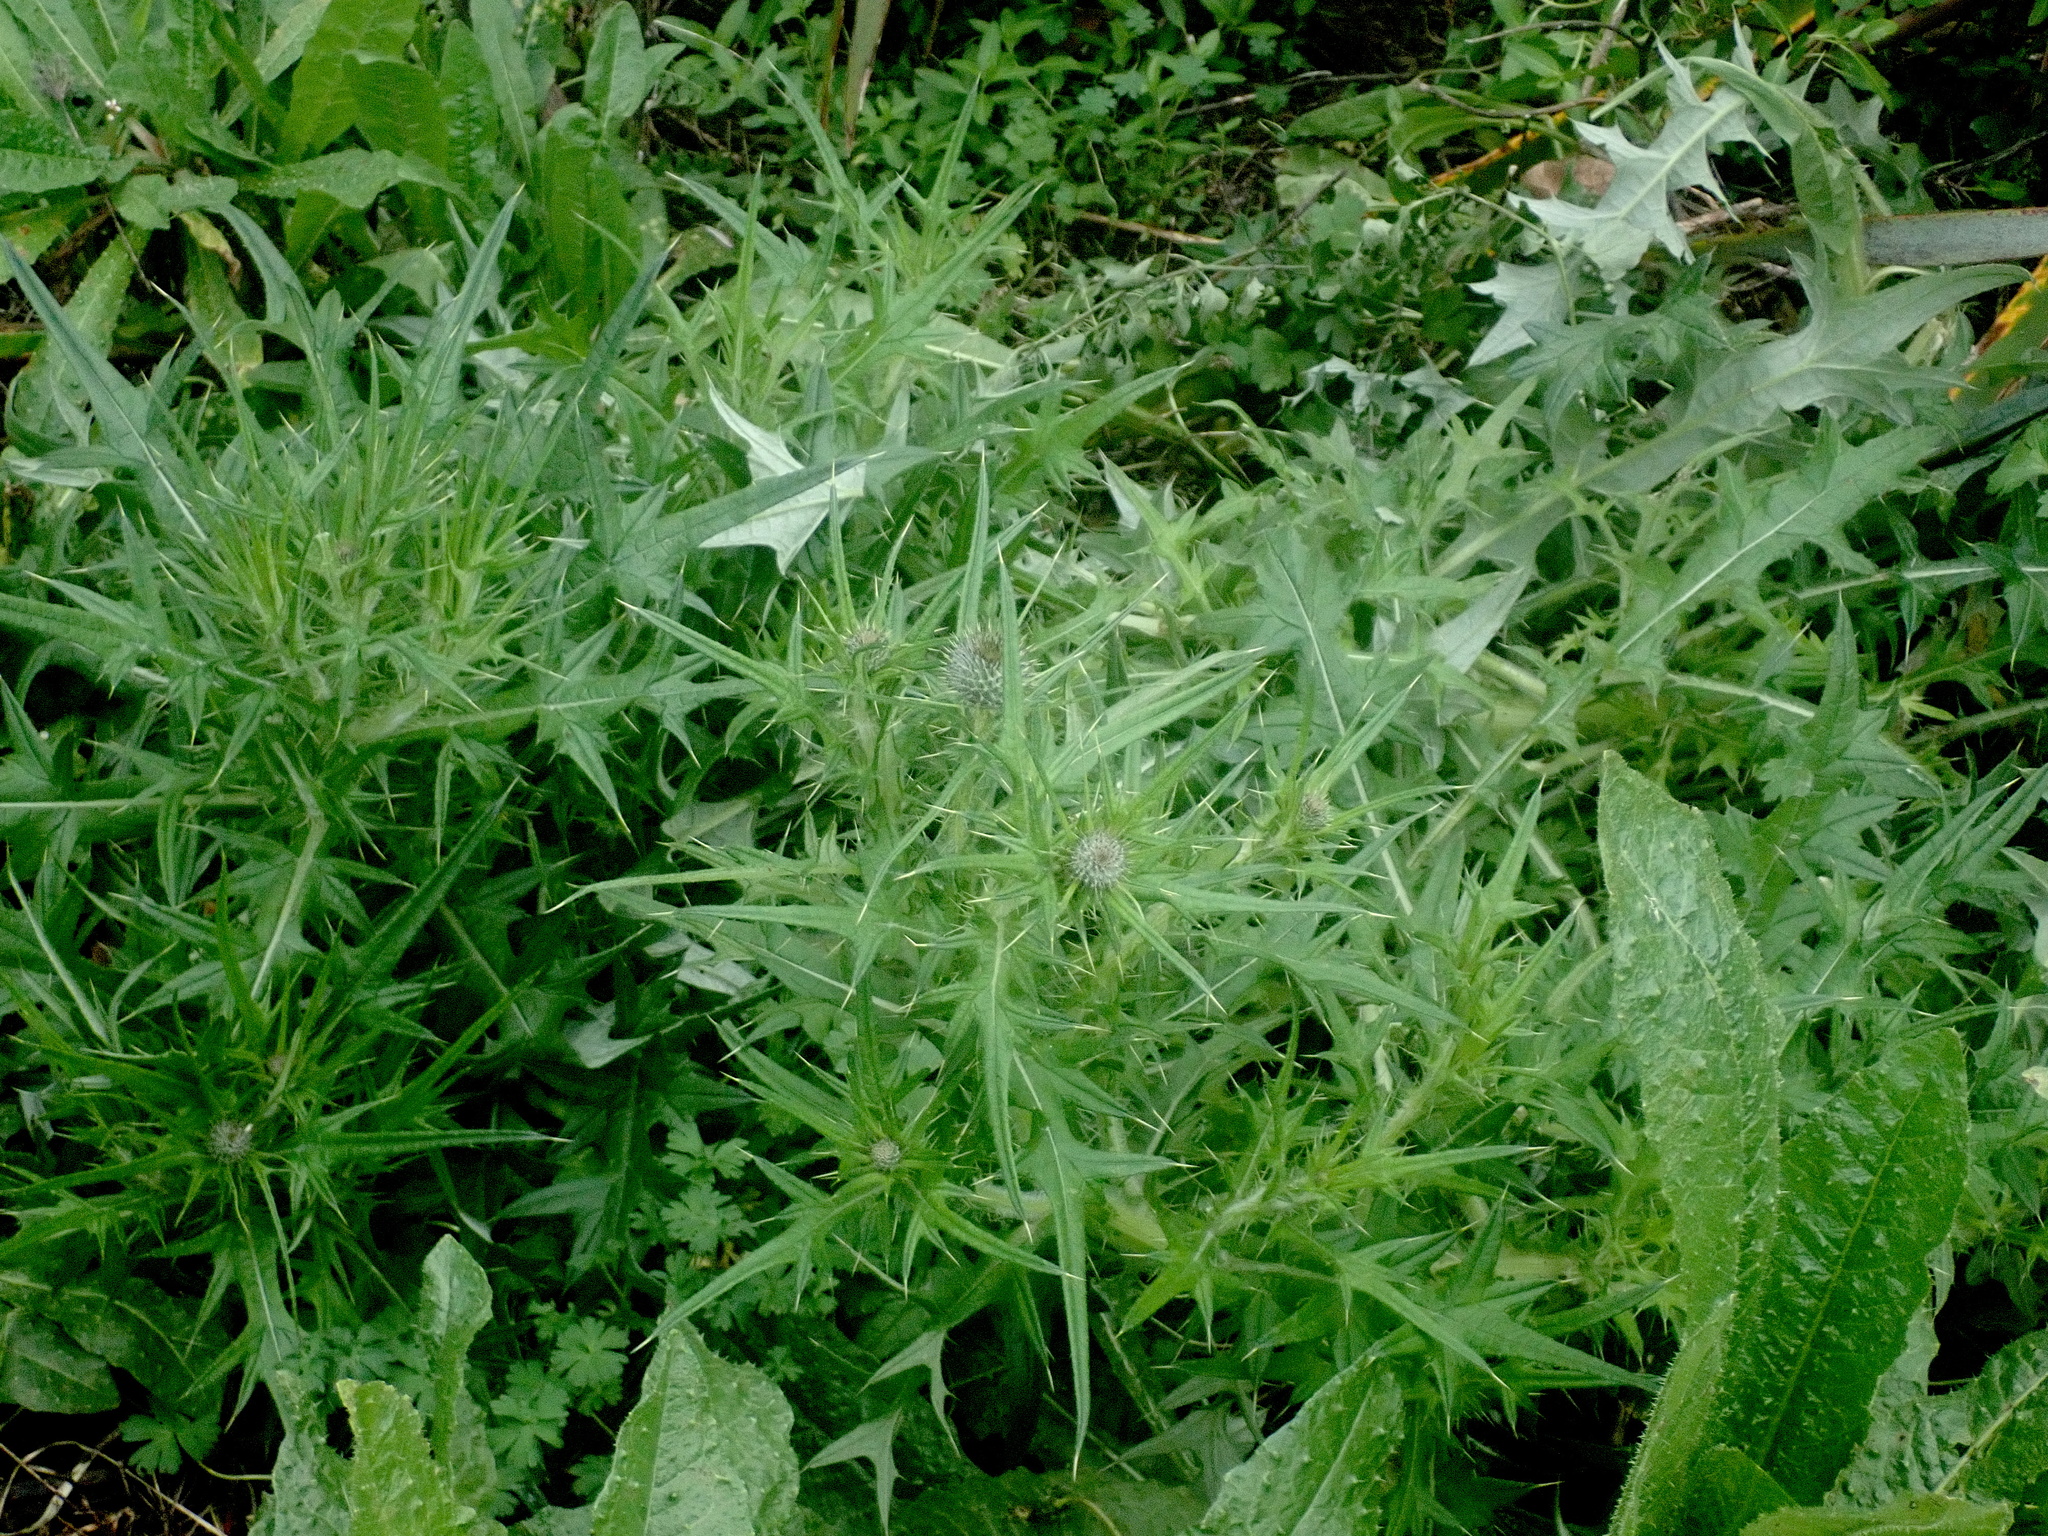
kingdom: Plantae
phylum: Tracheophyta
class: Magnoliopsida
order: Asterales
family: Asteraceae
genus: Cirsium
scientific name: Cirsium vulgare
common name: Bull thistle
